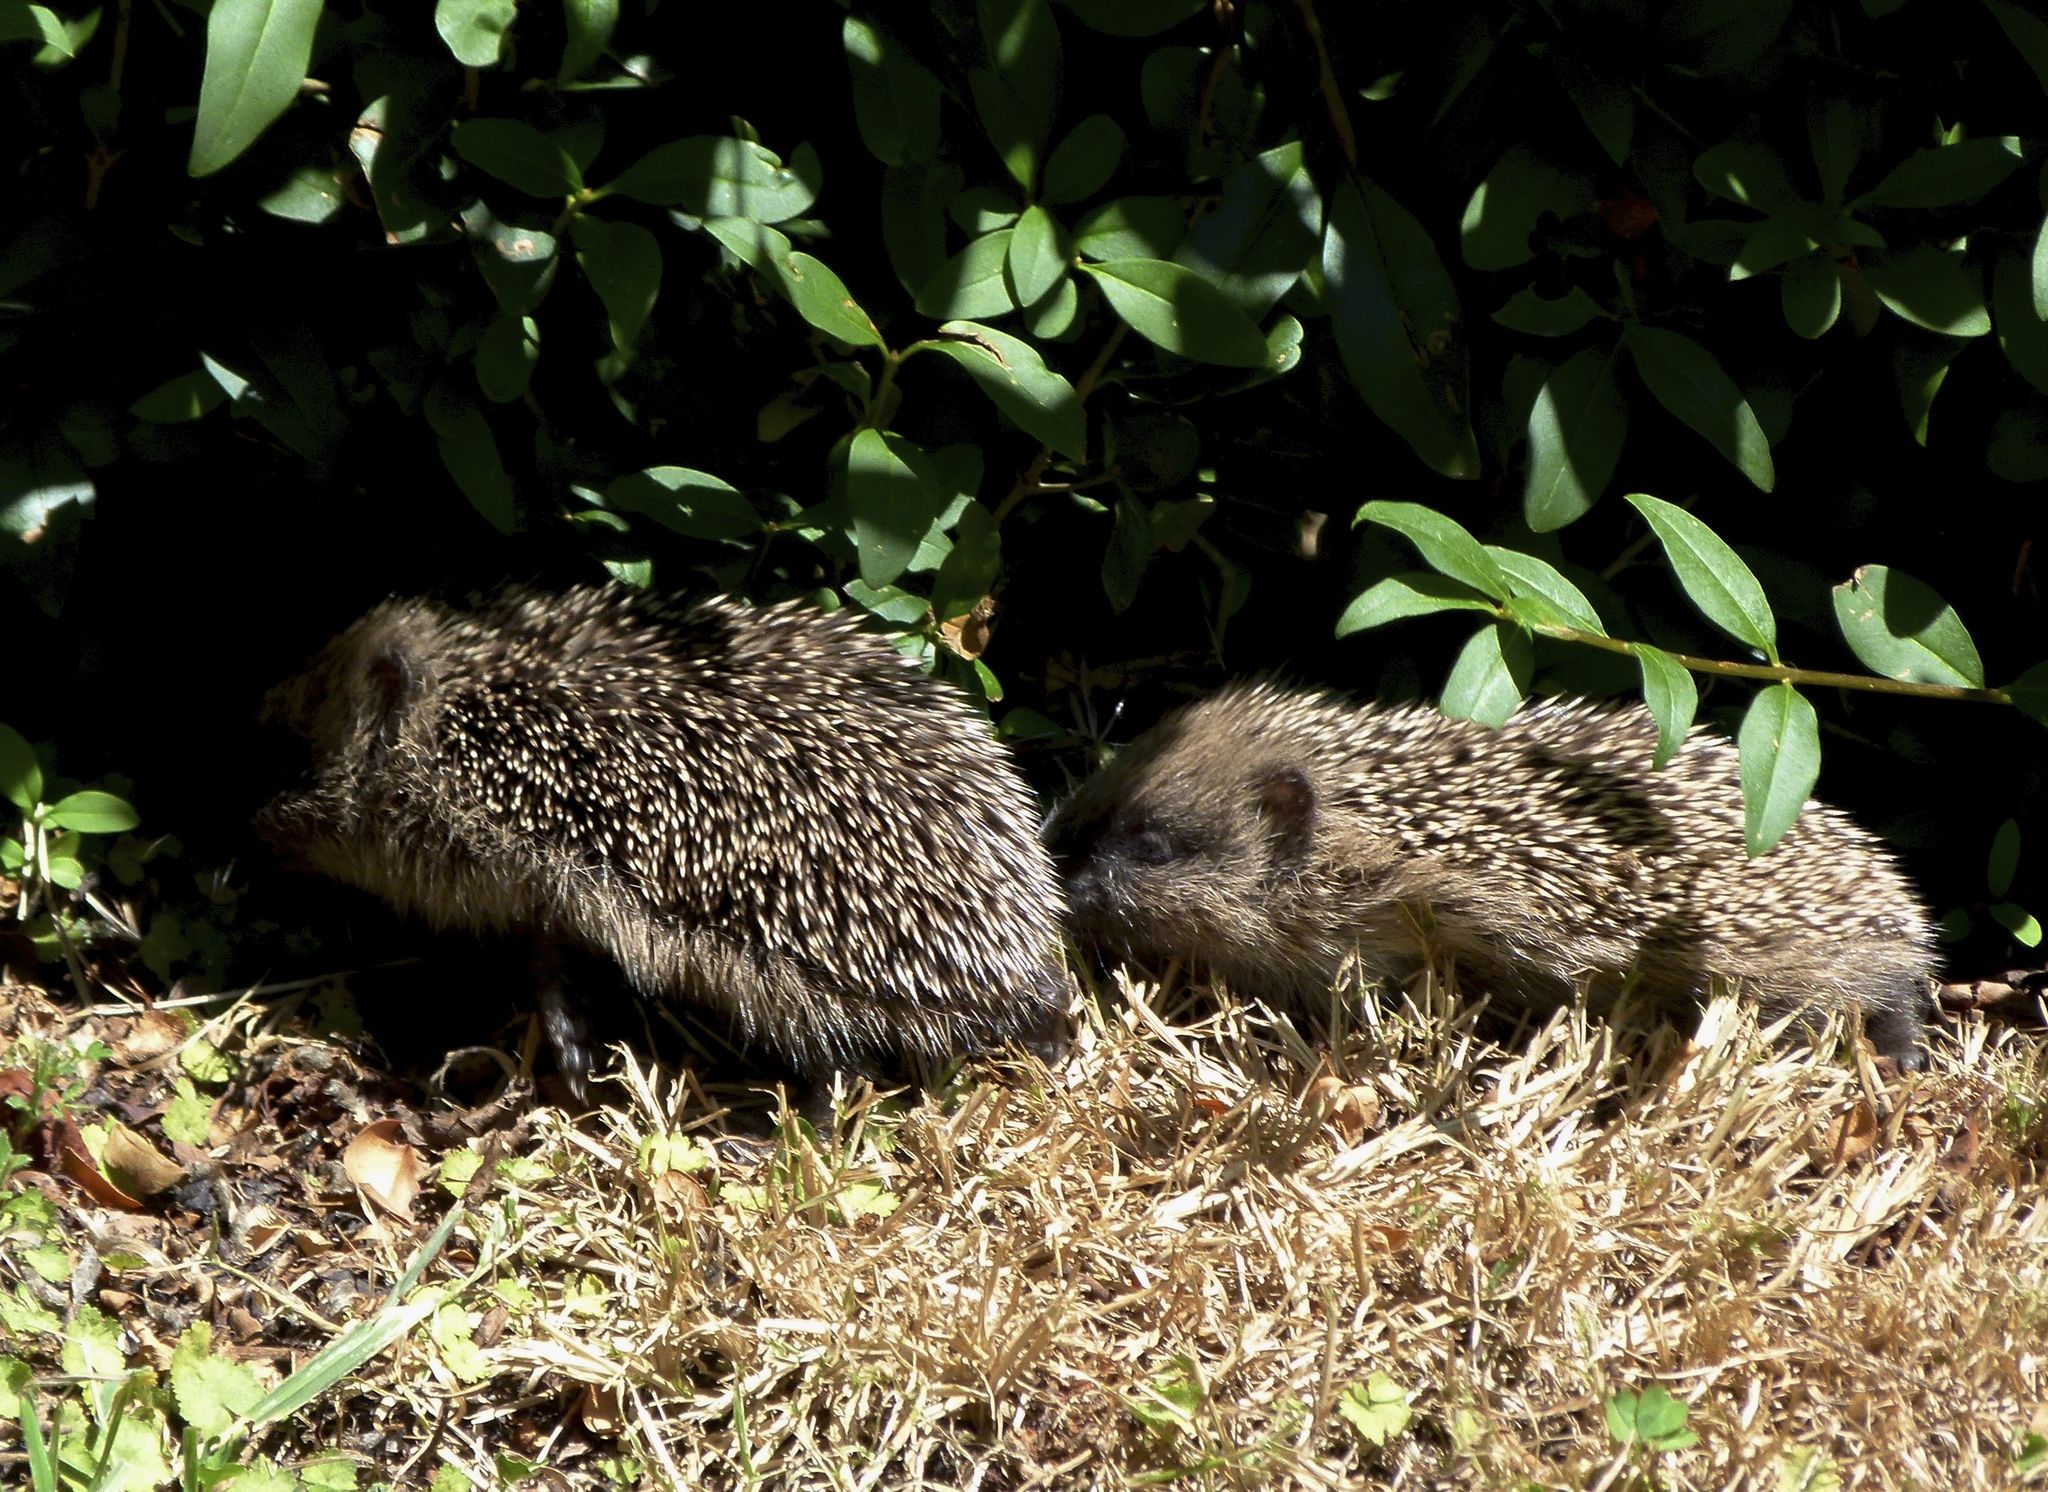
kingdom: Animalia
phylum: Chordata
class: Mammalia
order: Erinaceomorpha
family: Erinaceidae
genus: Erinaceus
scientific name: Erinaceus europaeus
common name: West european hedgehog
